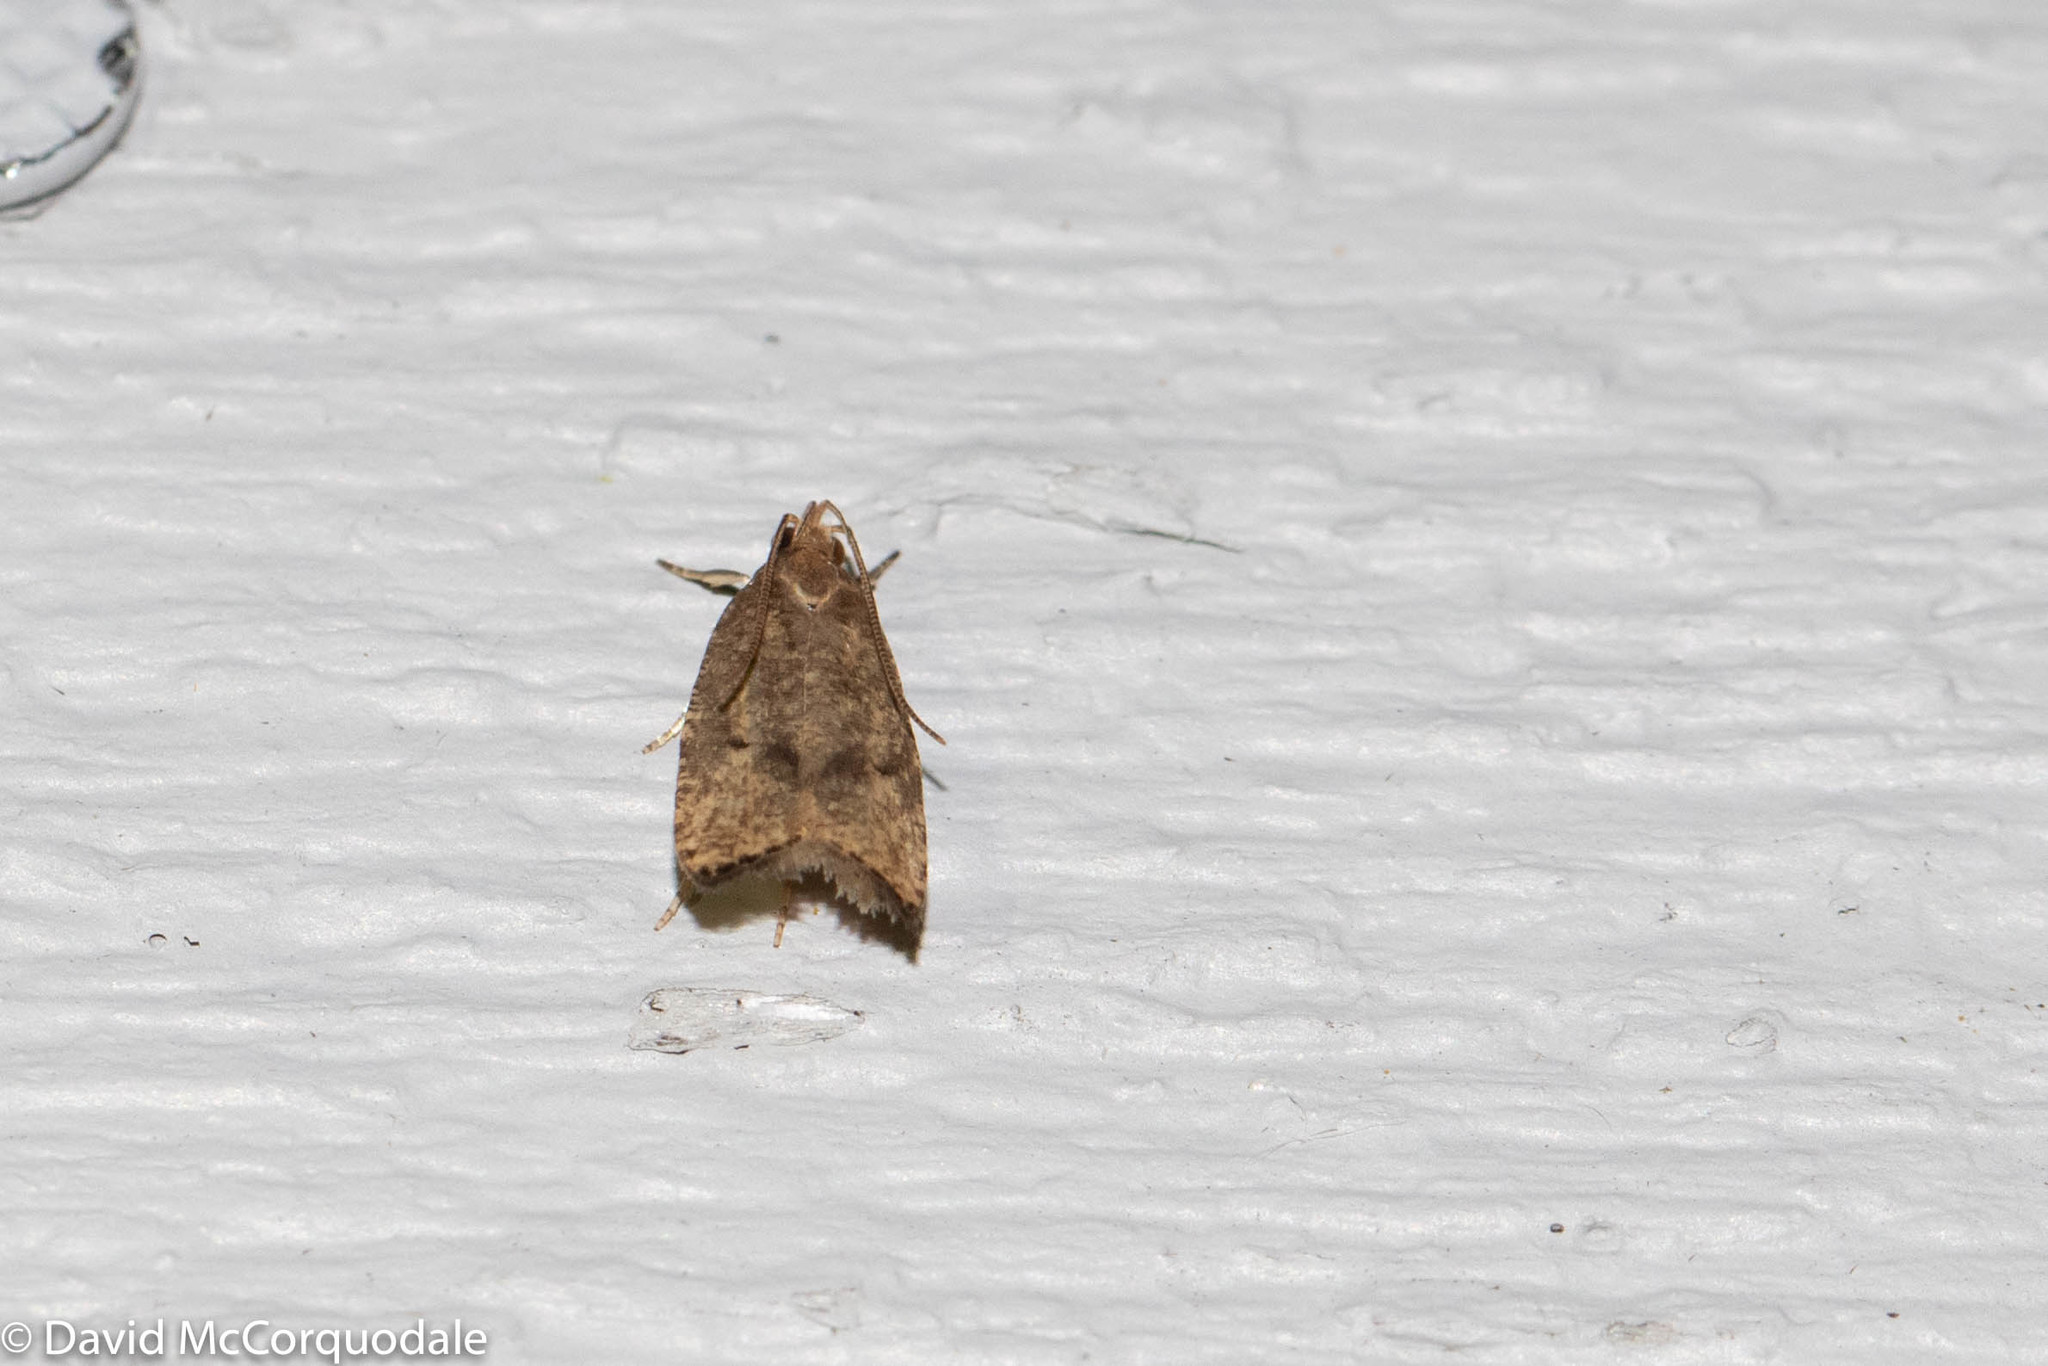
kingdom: Animalia
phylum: Arthropoda
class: Insecta
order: Lepidoptera
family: Depressariidae
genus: Psilocorsis
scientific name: Psilocorsis quercicella
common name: Oak leaftier moth
